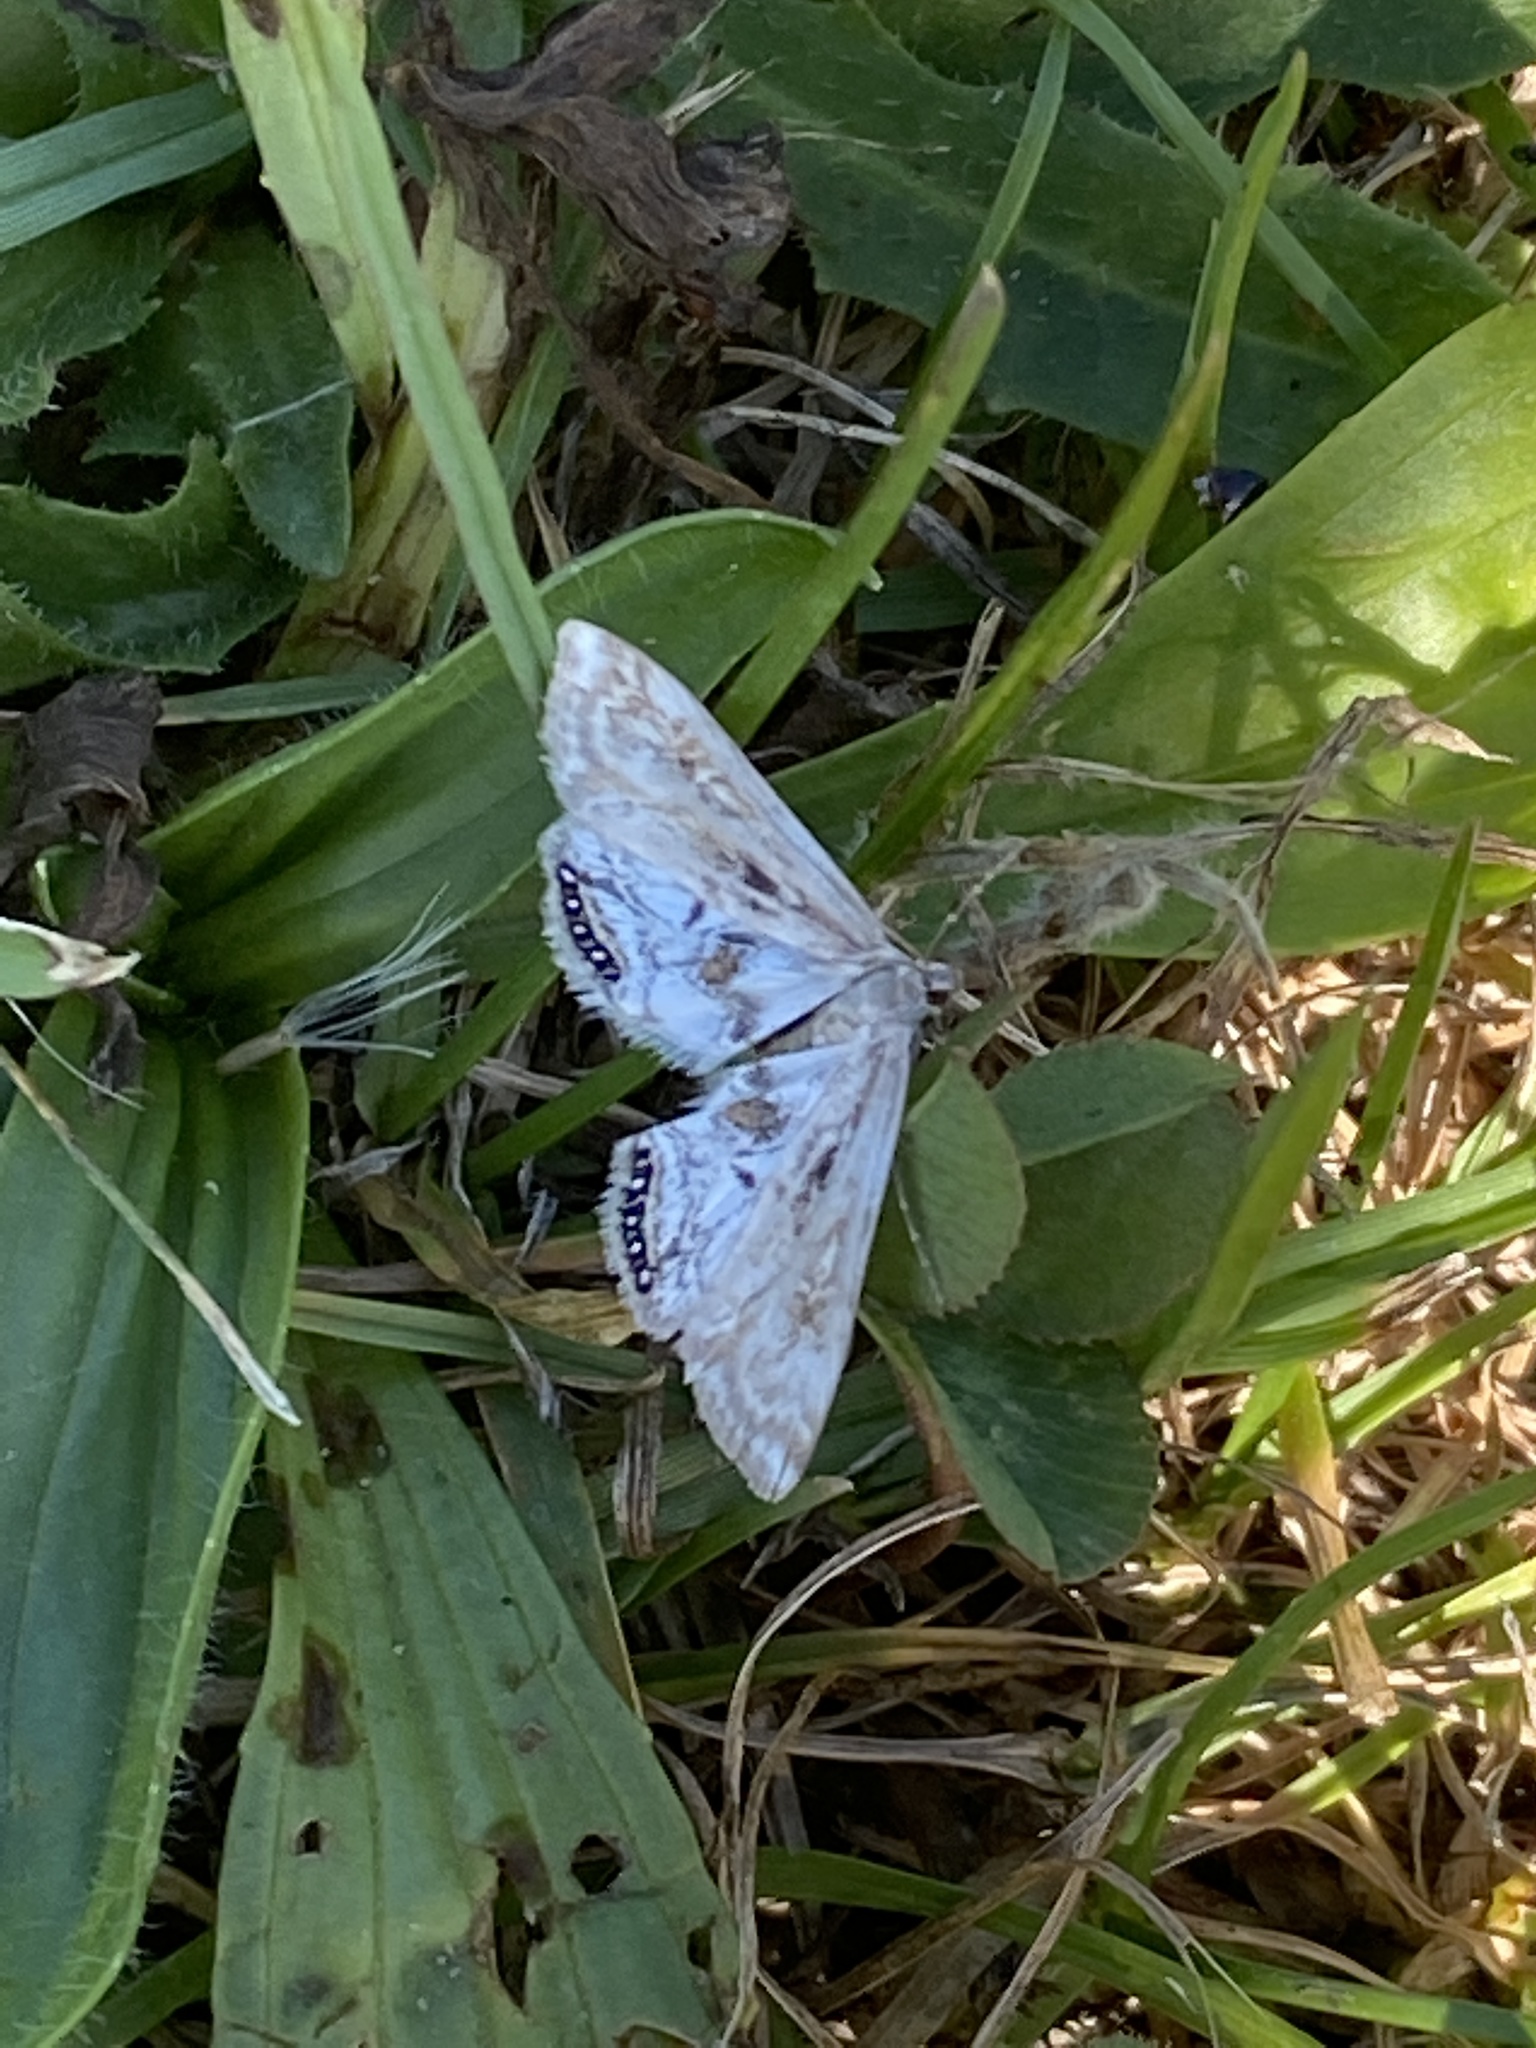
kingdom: Animalia
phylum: Arthropoda
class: Insecta
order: Lepidoptera
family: Crambidae
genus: Cataclysta
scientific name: Cataclysta lemnata
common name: Small china-mark
